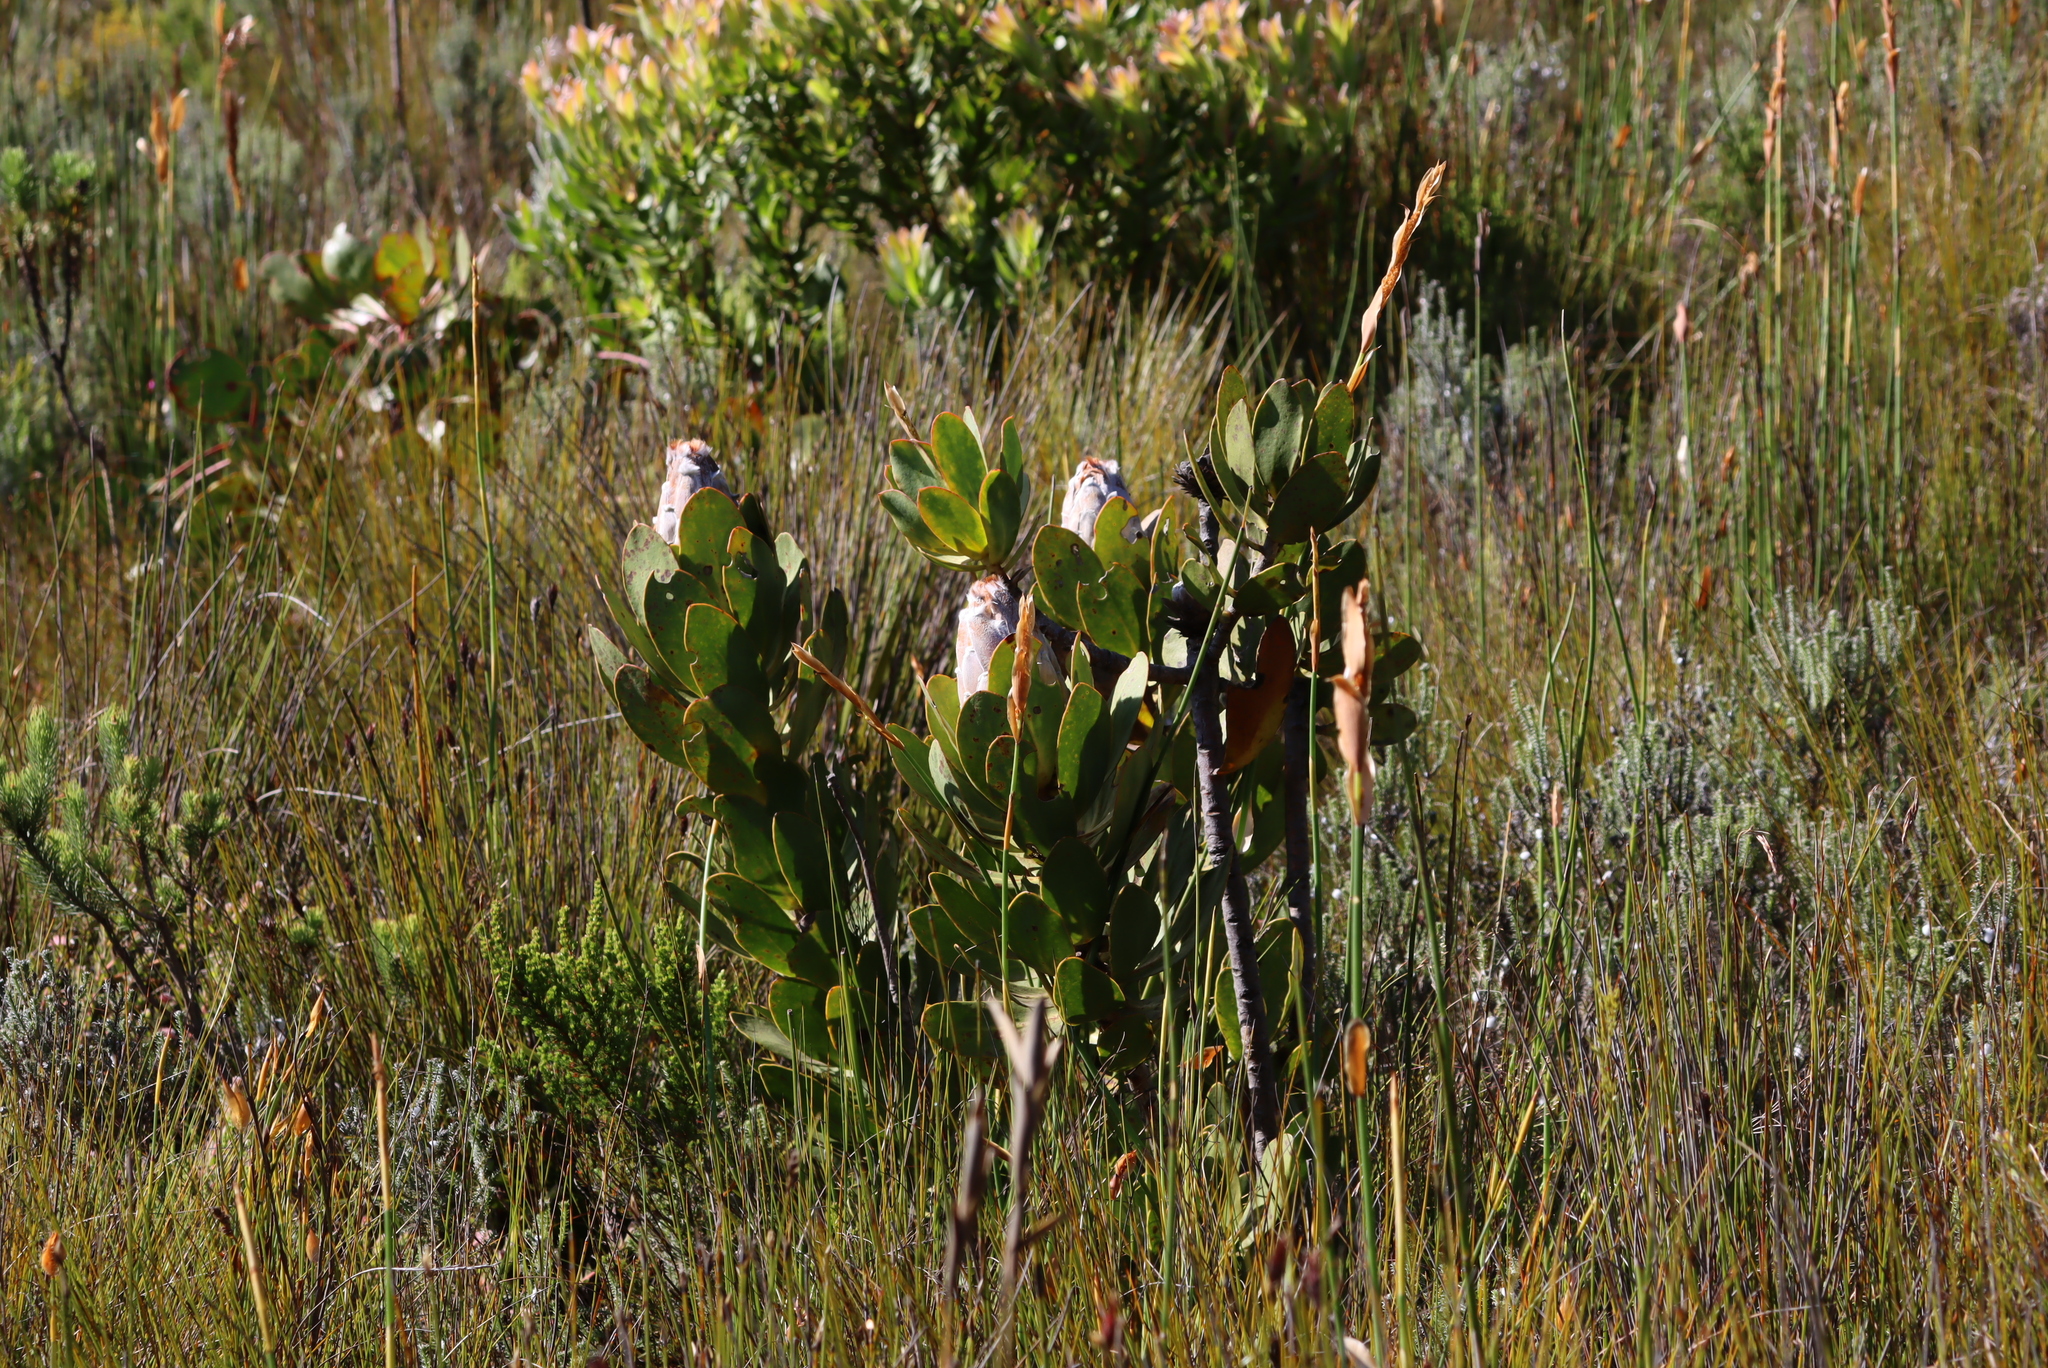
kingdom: Plantae
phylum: Tracheophyta
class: Magnoliopsida
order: Proteales
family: Proteaceae
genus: Protea
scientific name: Protea speciosa
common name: Brown-beard sugarbush
